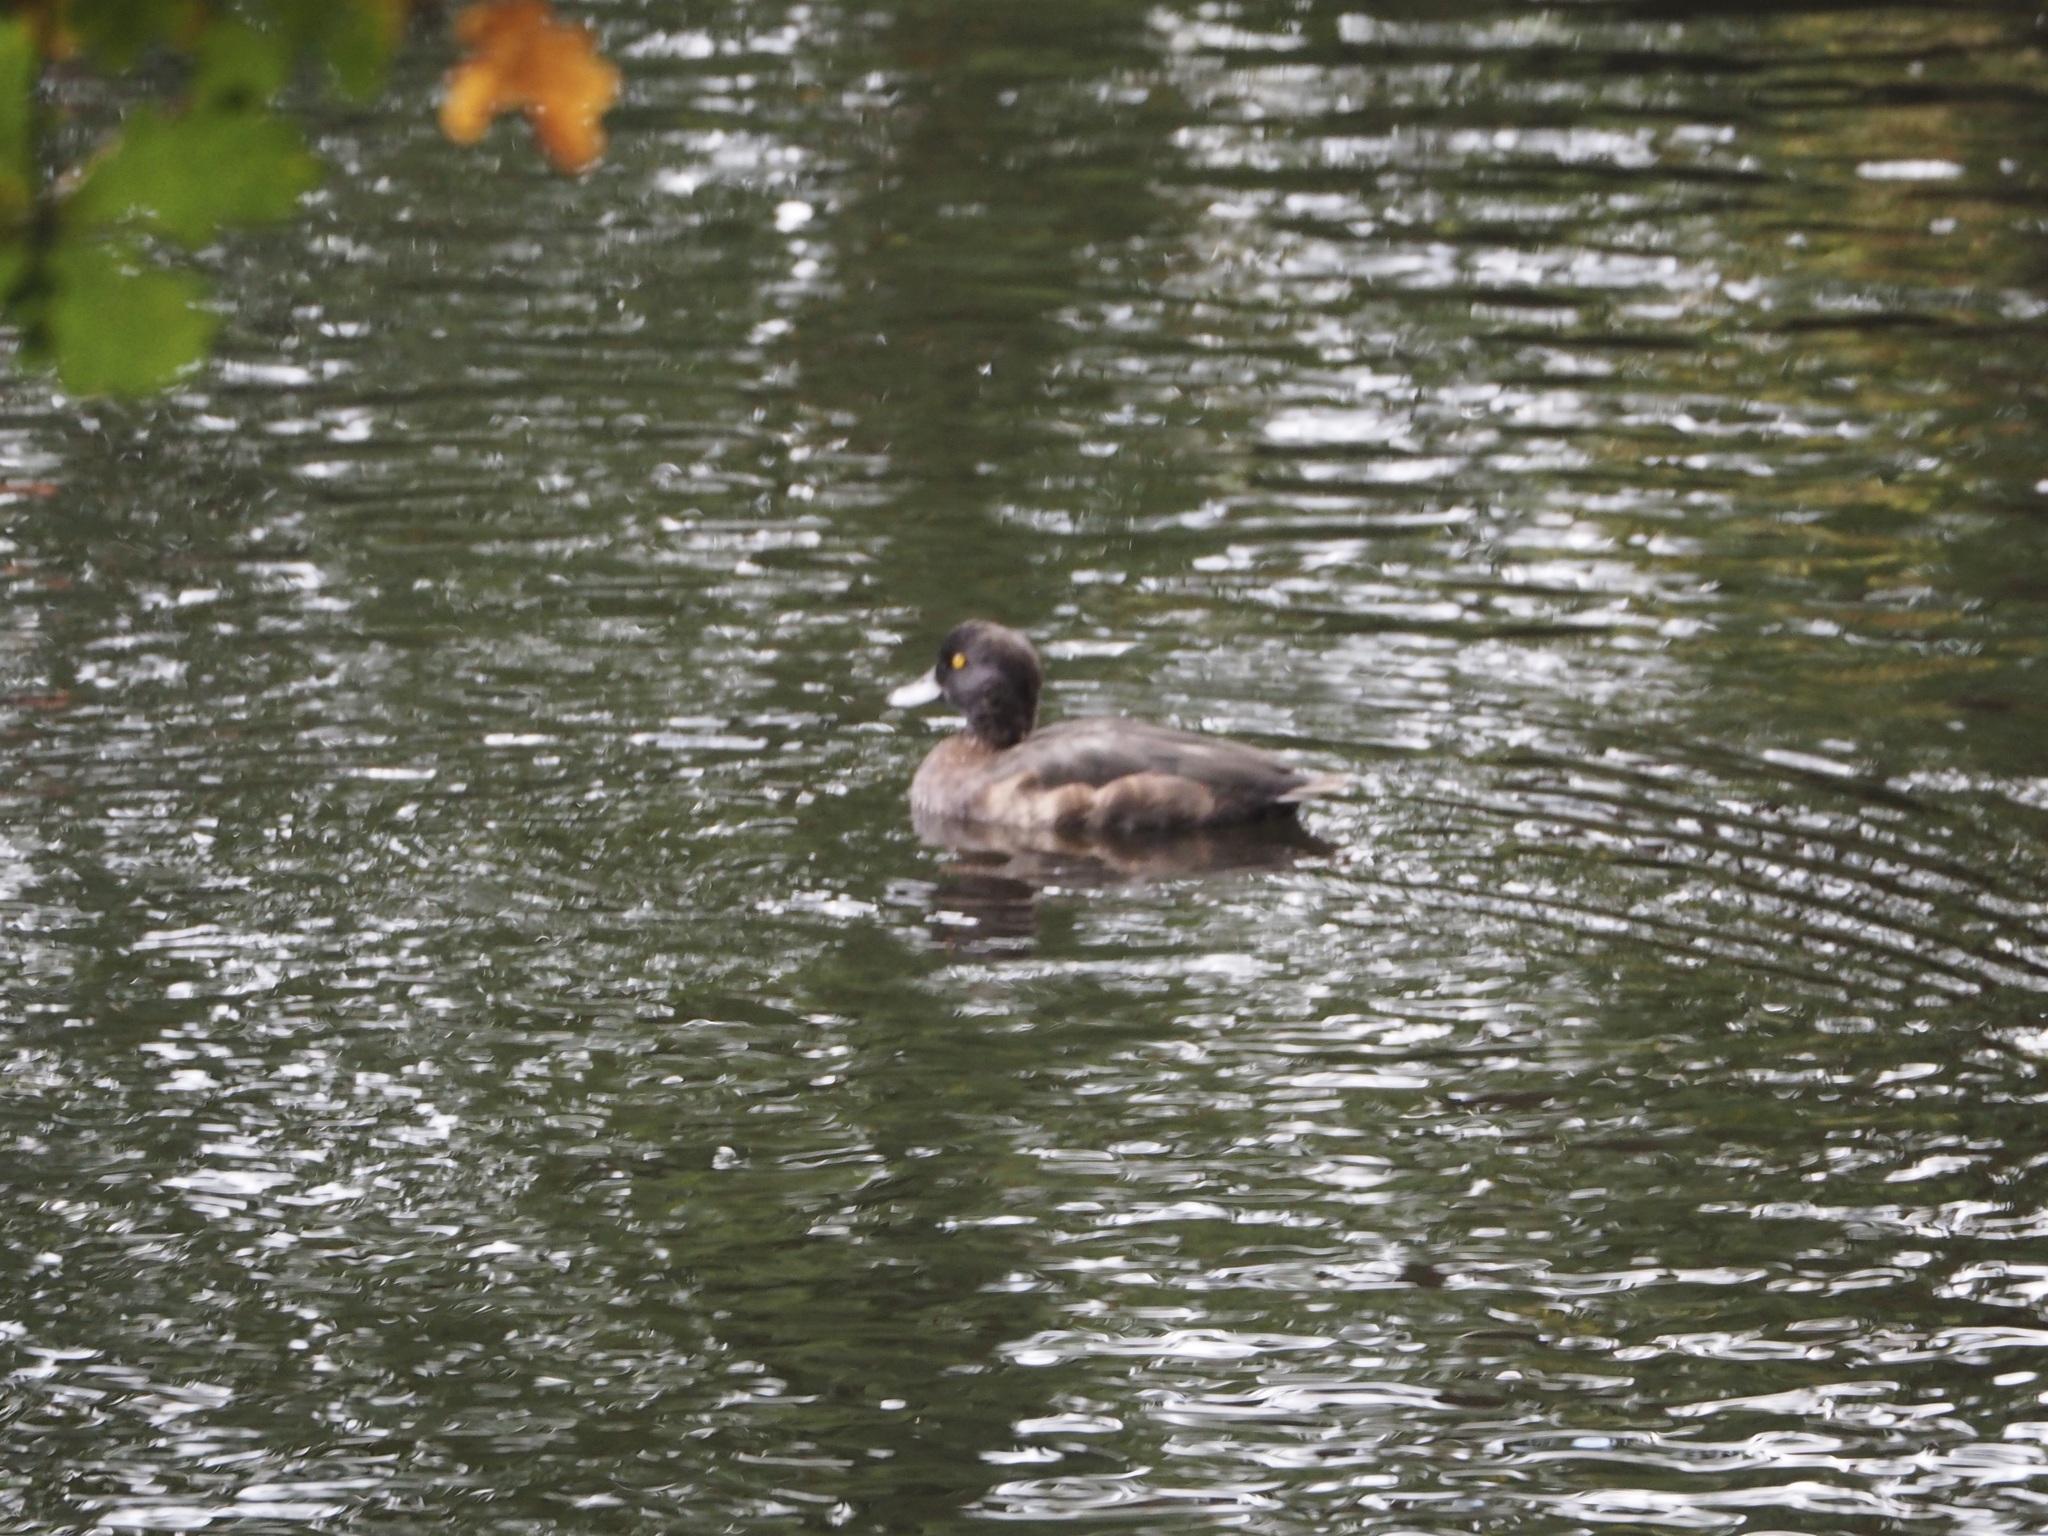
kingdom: Animalia
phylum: Chordata
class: Aves
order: Anseriformes
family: Anatidae
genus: Aythya
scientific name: Aythya fuligula
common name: Tufted duck
